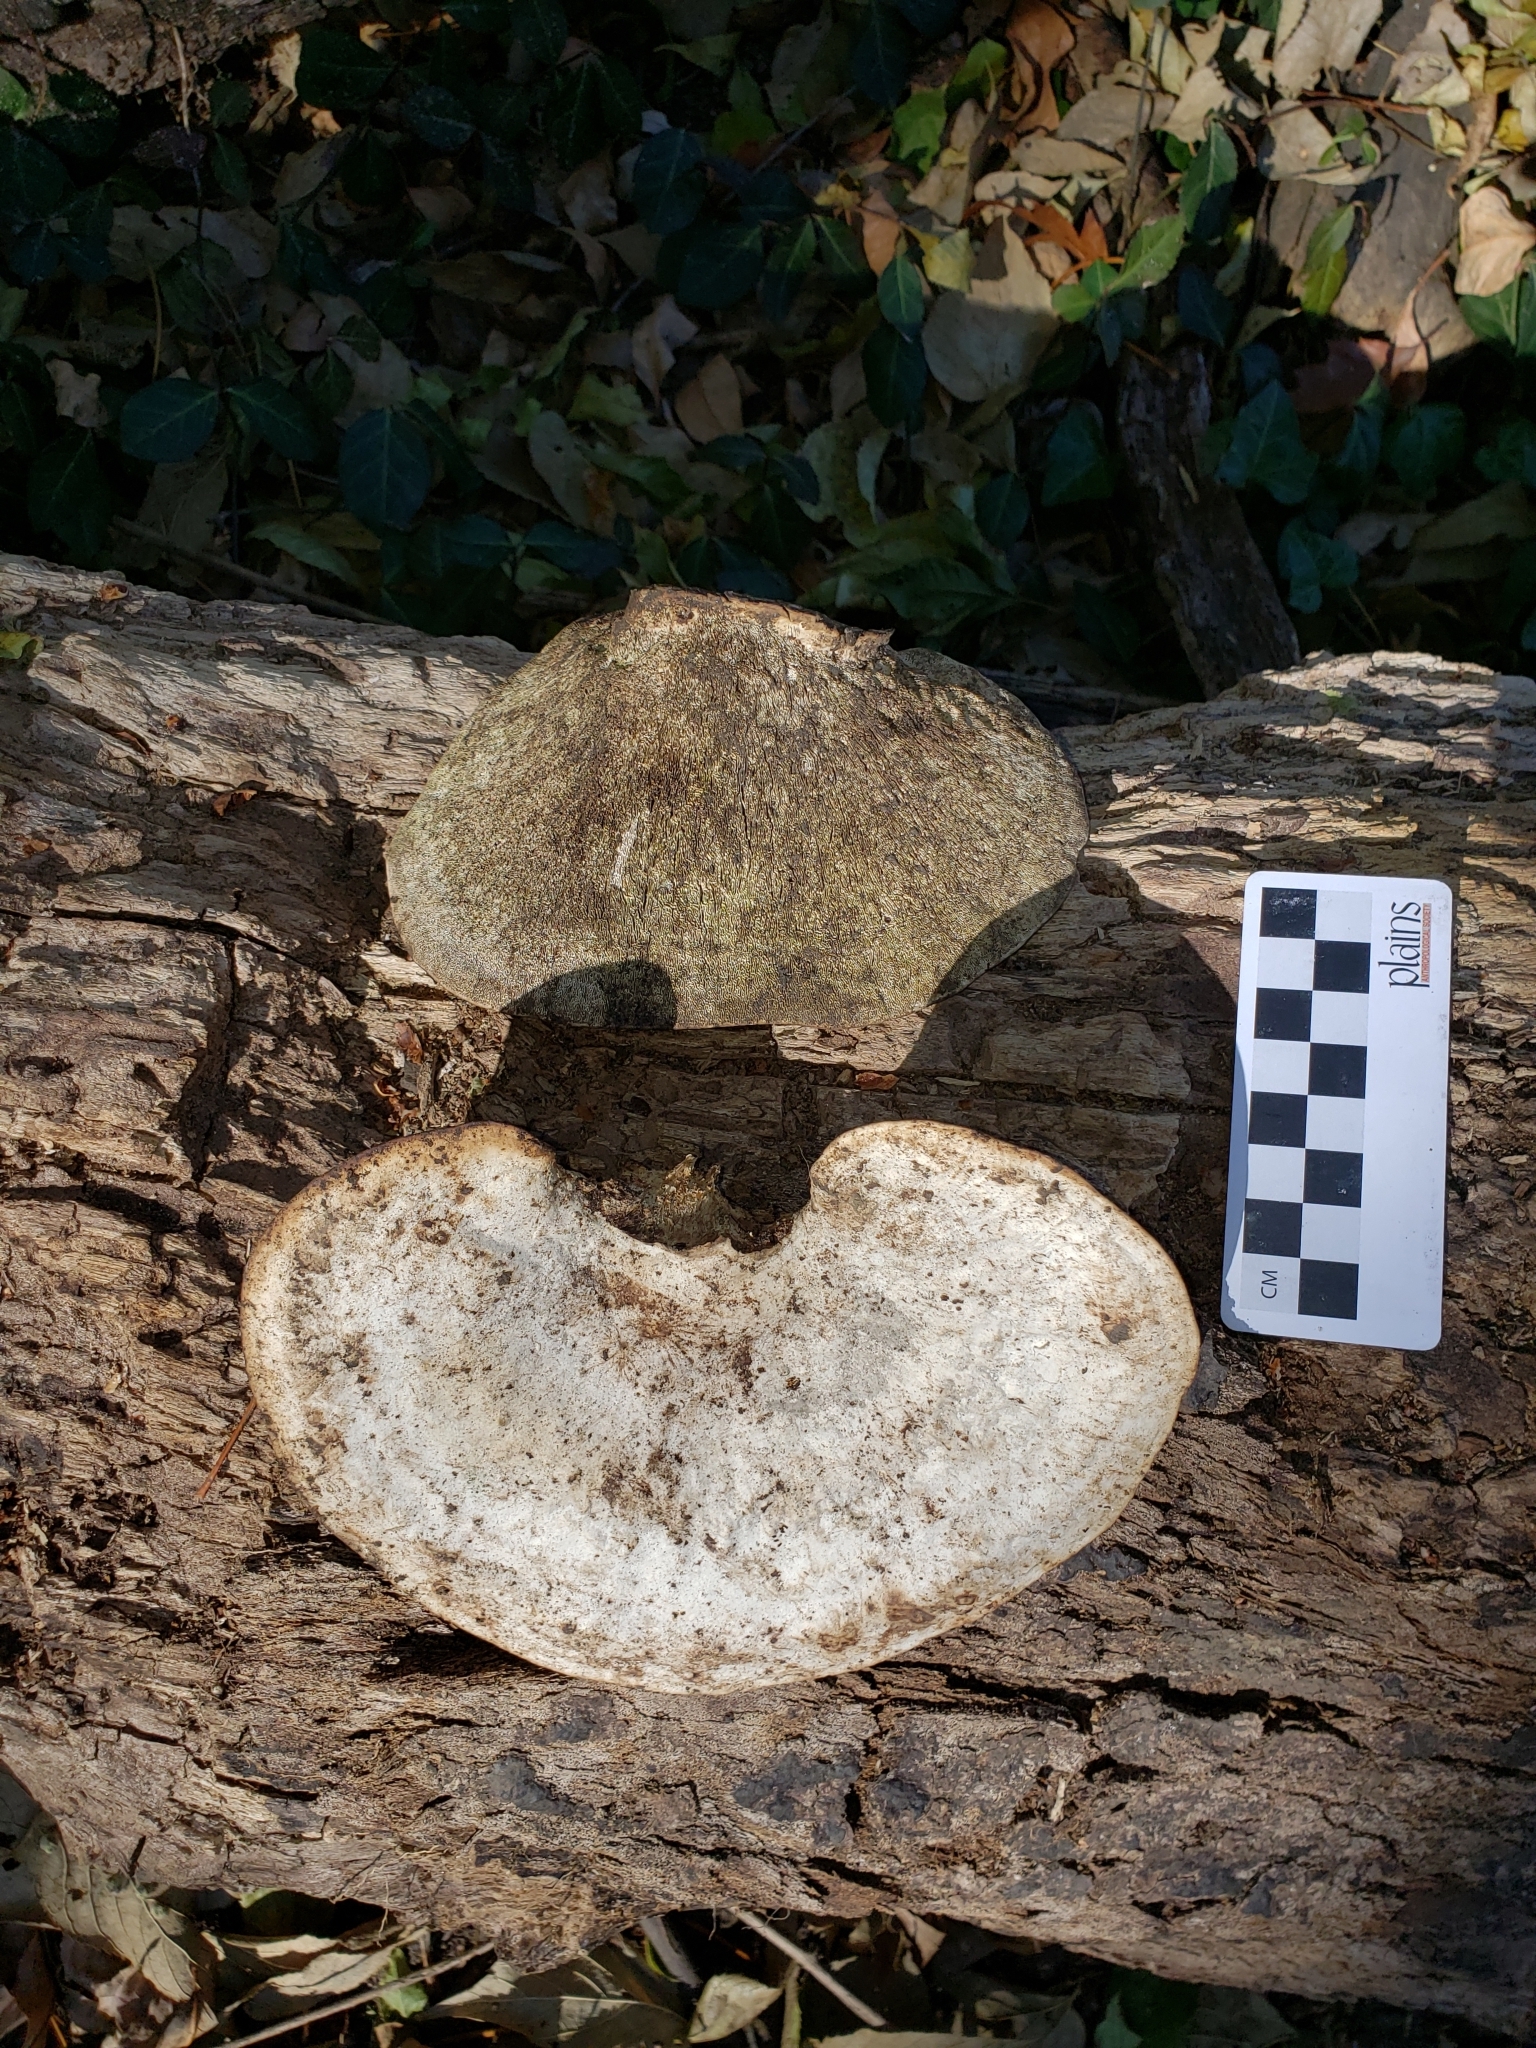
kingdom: Fungi
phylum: Basidiomycota
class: Agaricomycetes
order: Polyporales
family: Polyporaceae
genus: Trametes
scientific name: Trametes
